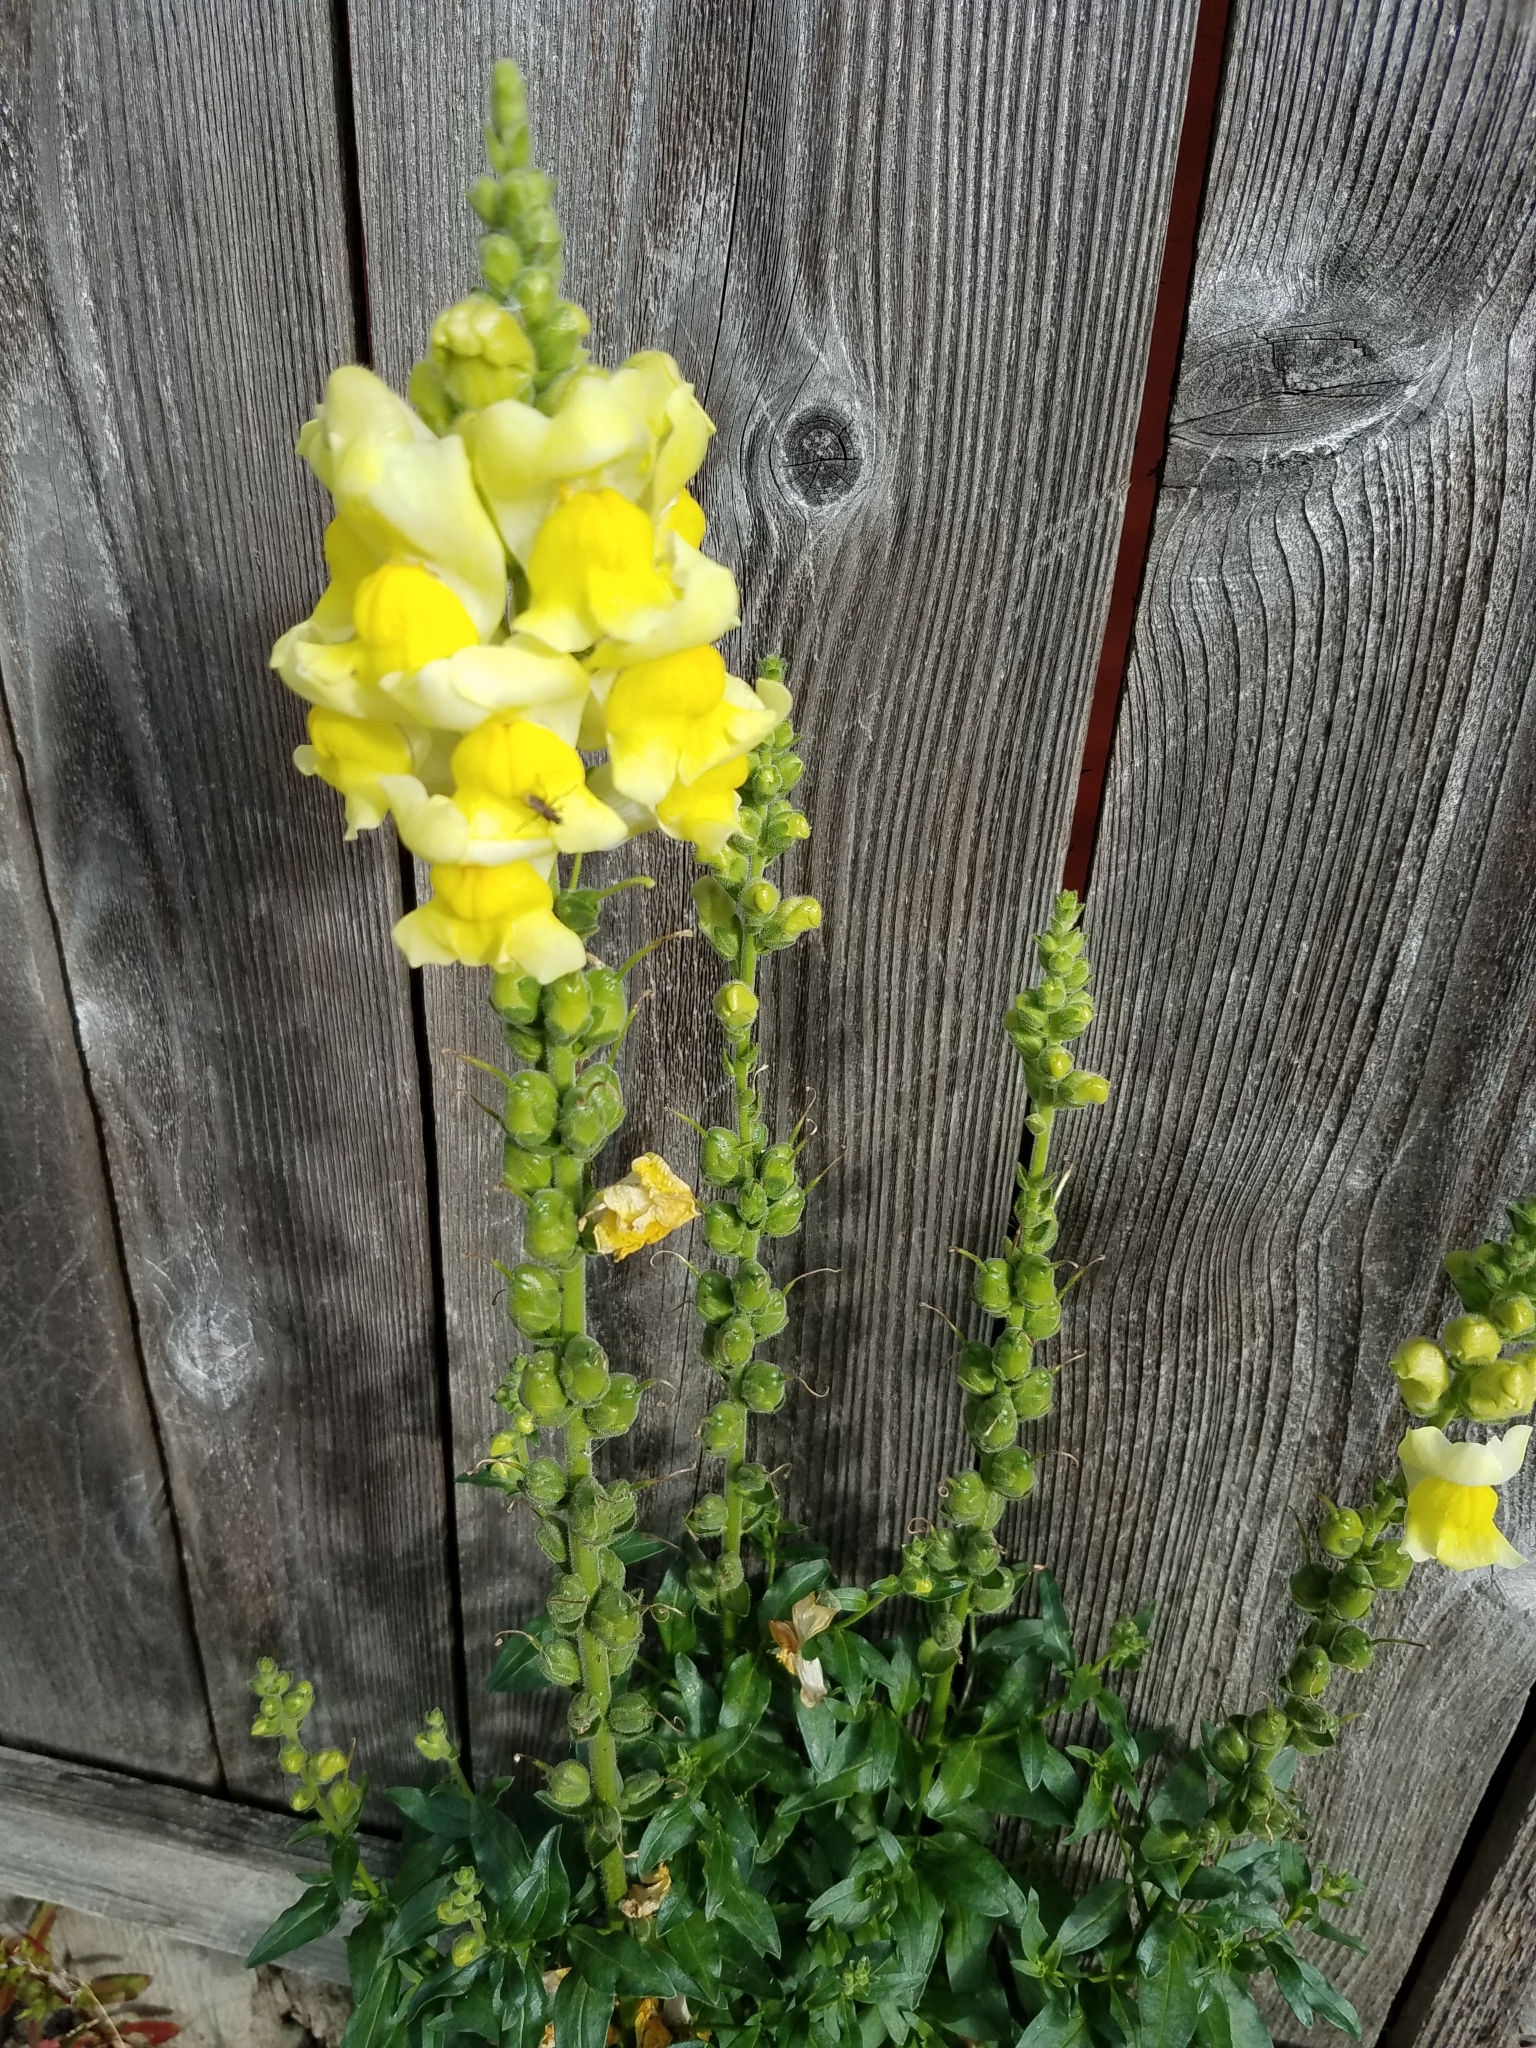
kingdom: Plantae
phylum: Tracheophyta
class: Magnoliopsida
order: Lamiales
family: Plantaginaceae
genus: Antirrhinum
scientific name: Antirrhinum majus
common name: Snapdragon
